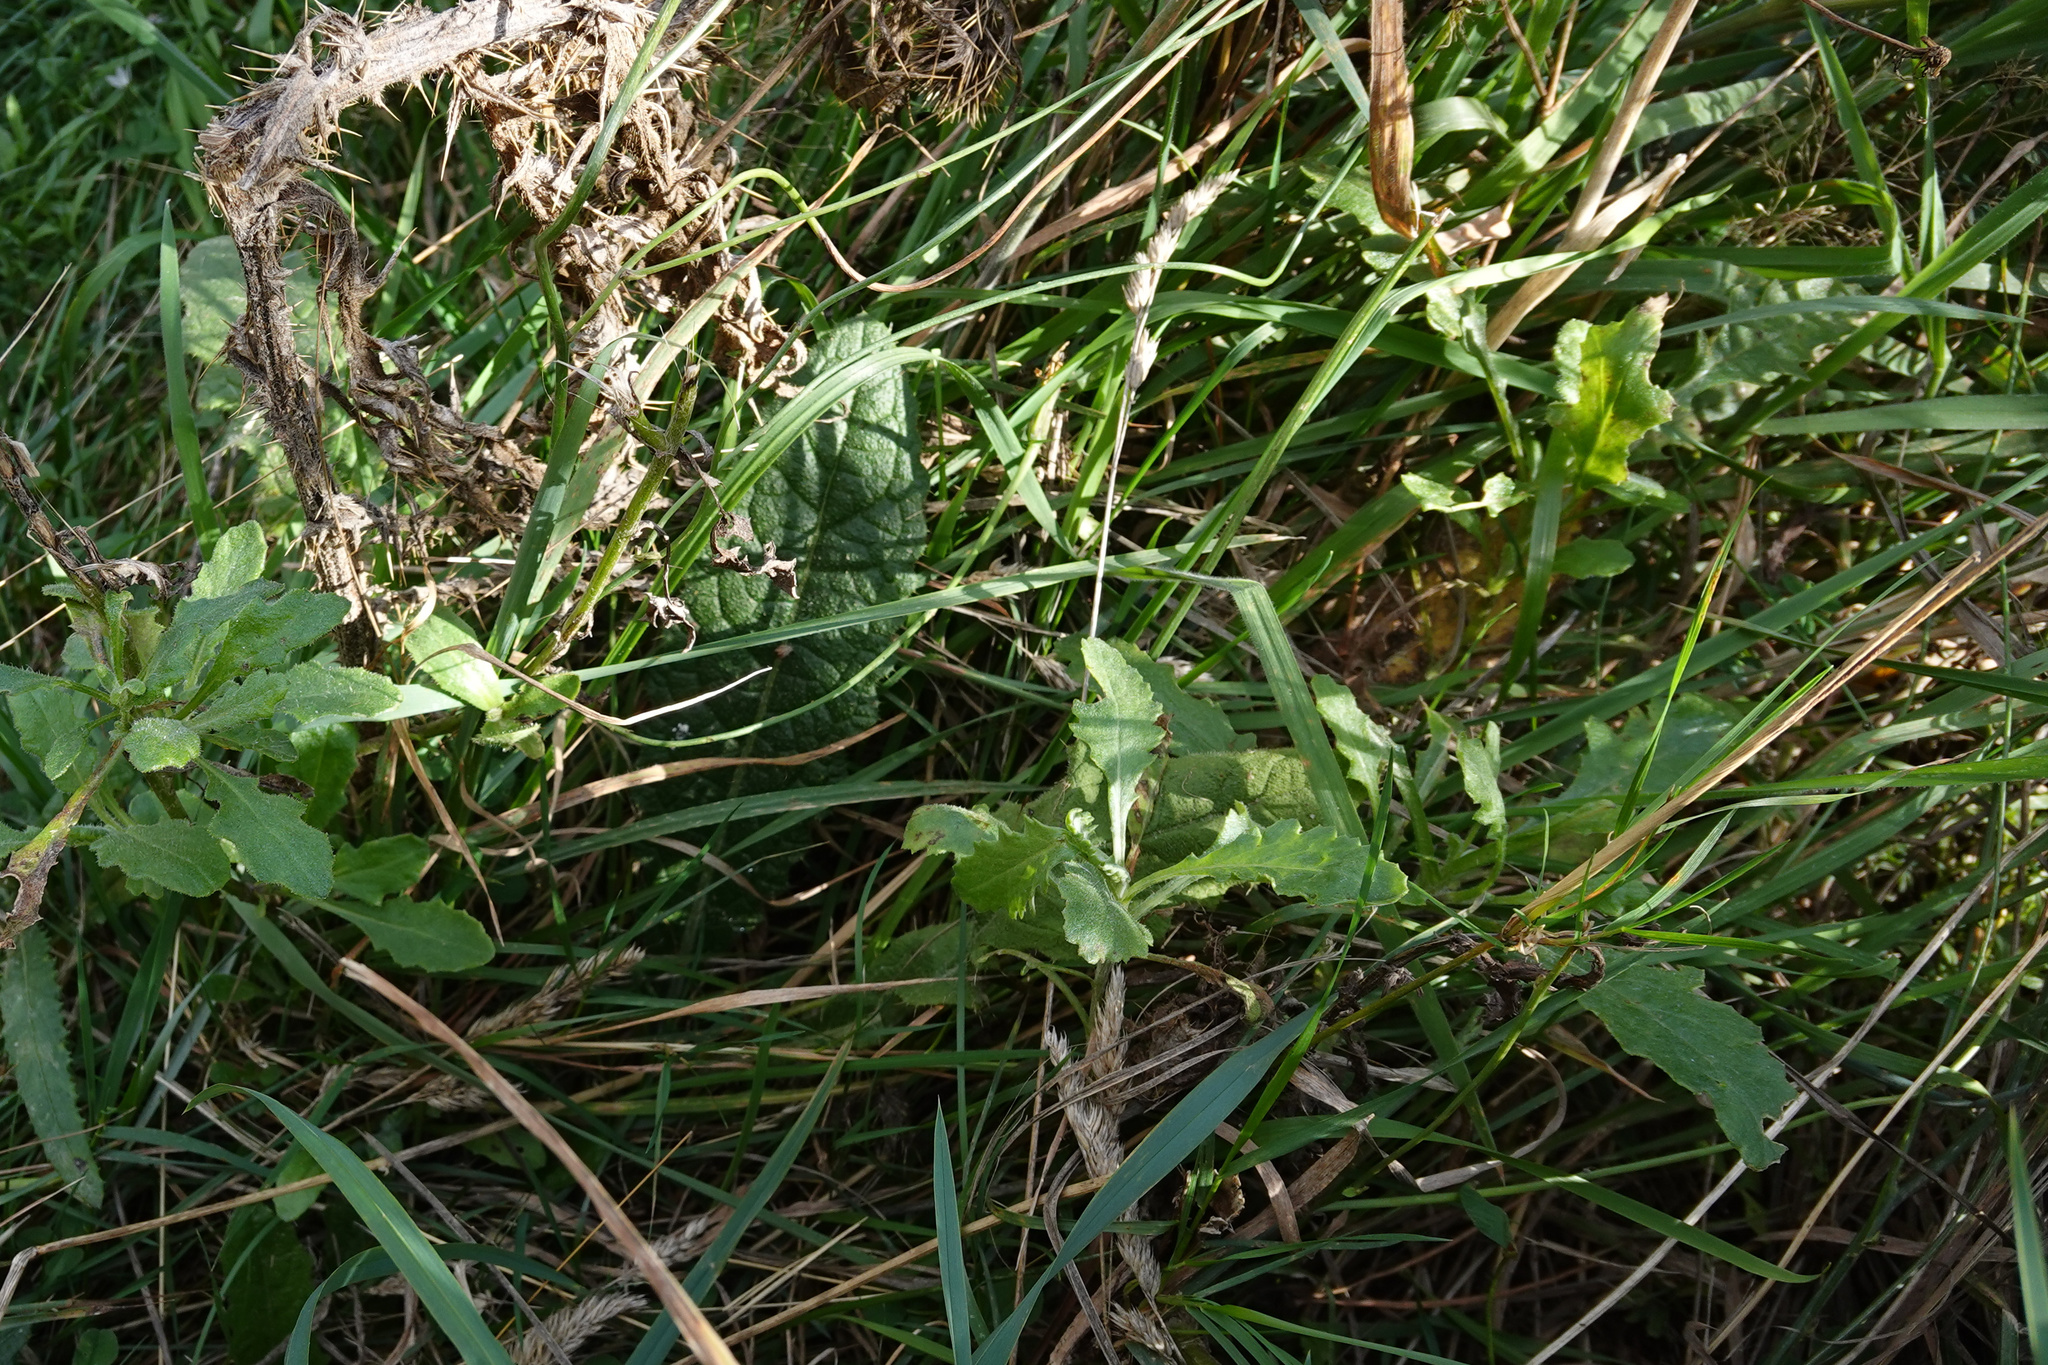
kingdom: Plantae
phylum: Tracheophyta
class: Magnoliopsida
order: Asterales
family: Asteraceae
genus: Senecio
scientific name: Senecio glomeratus
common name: Cutleaf burnweed
